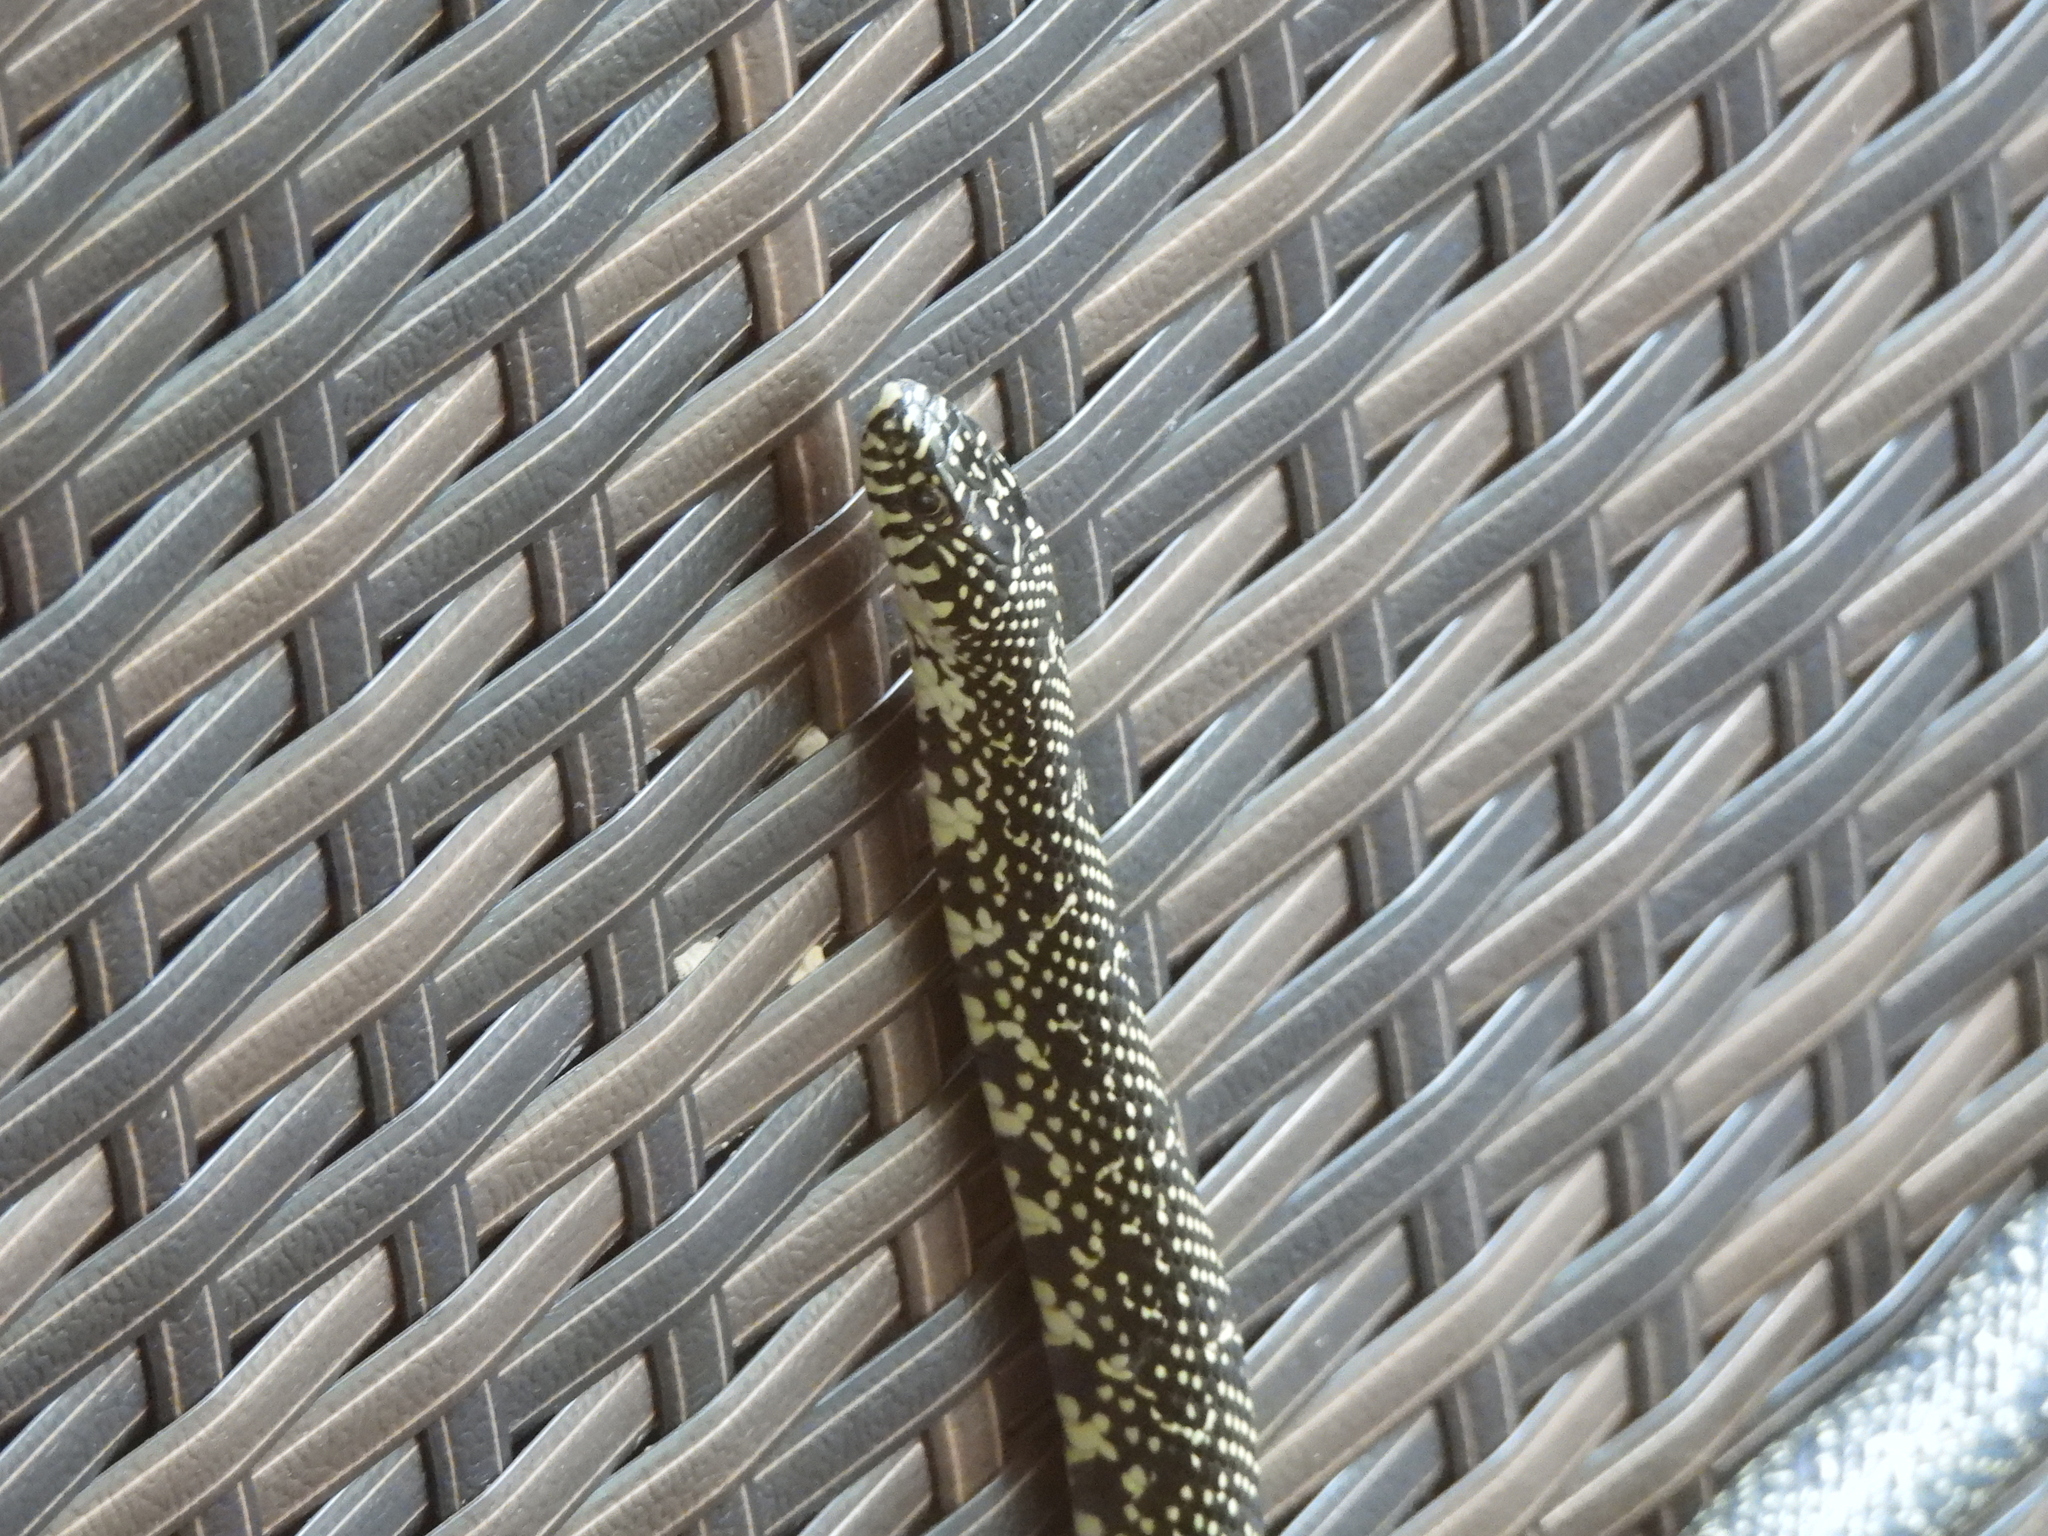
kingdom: Animalia
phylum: Chordata
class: Squamata
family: Colubridae
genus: Lampropeltis
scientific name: Lampropeltis holbrooki
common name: Speckled kingsnake
